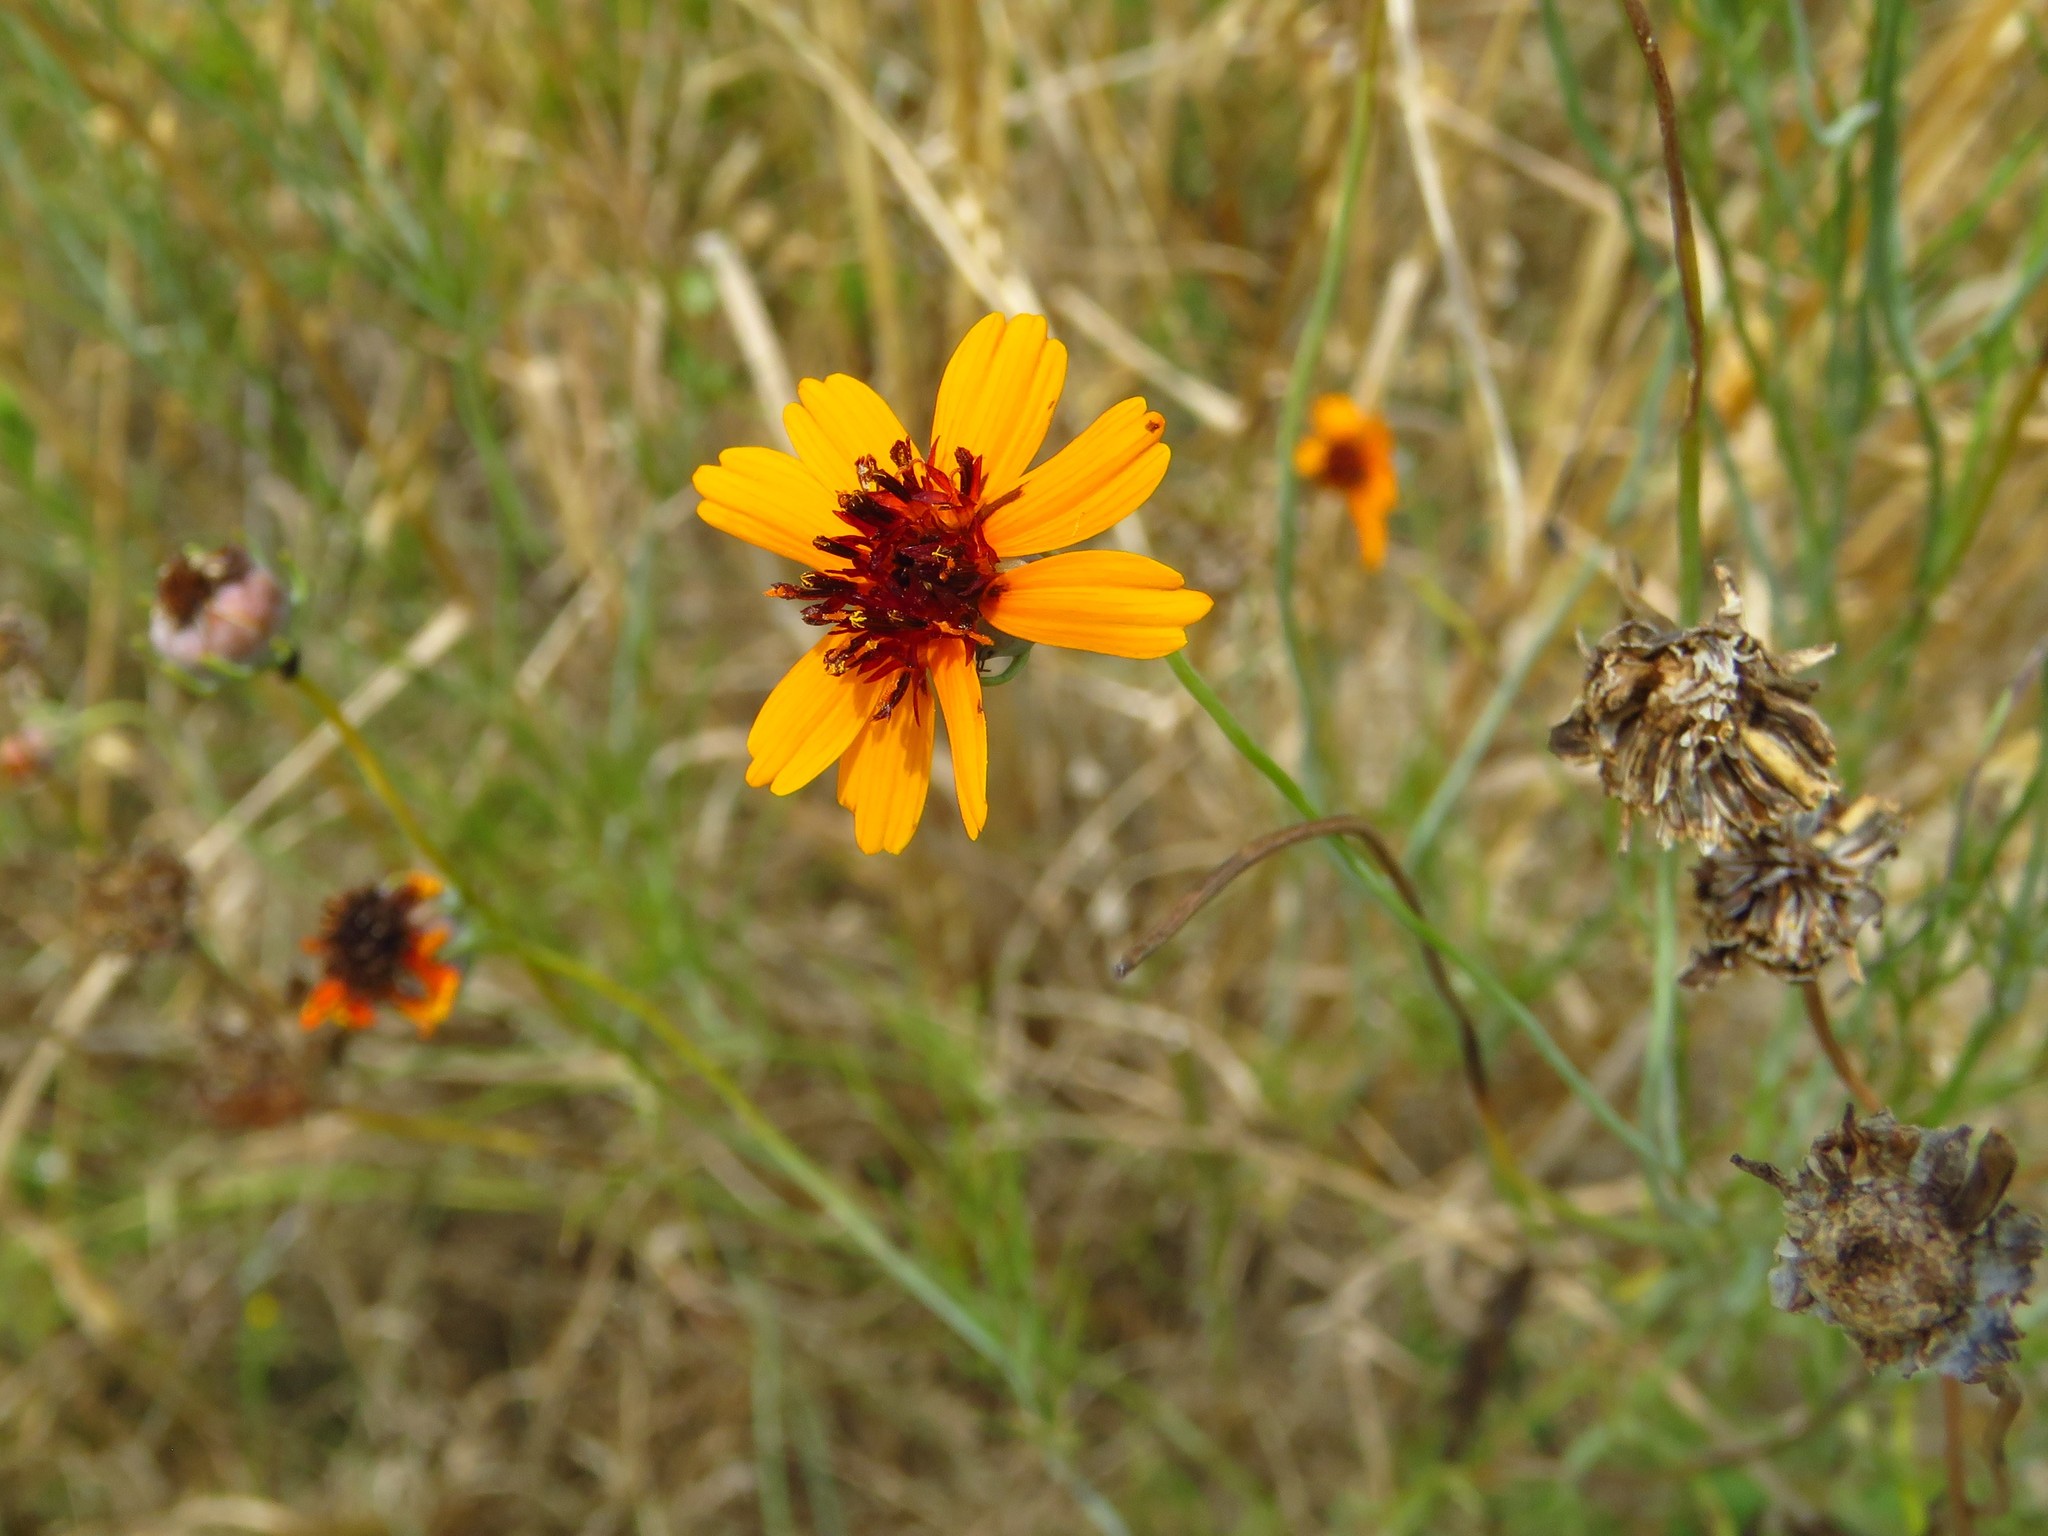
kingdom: Plantae
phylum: Tracheophyta
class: Magnoliopsida
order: Asterales
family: Asteraceae
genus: Thelesperma
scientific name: Thelesperma filifolium
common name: Stiff greenthread
